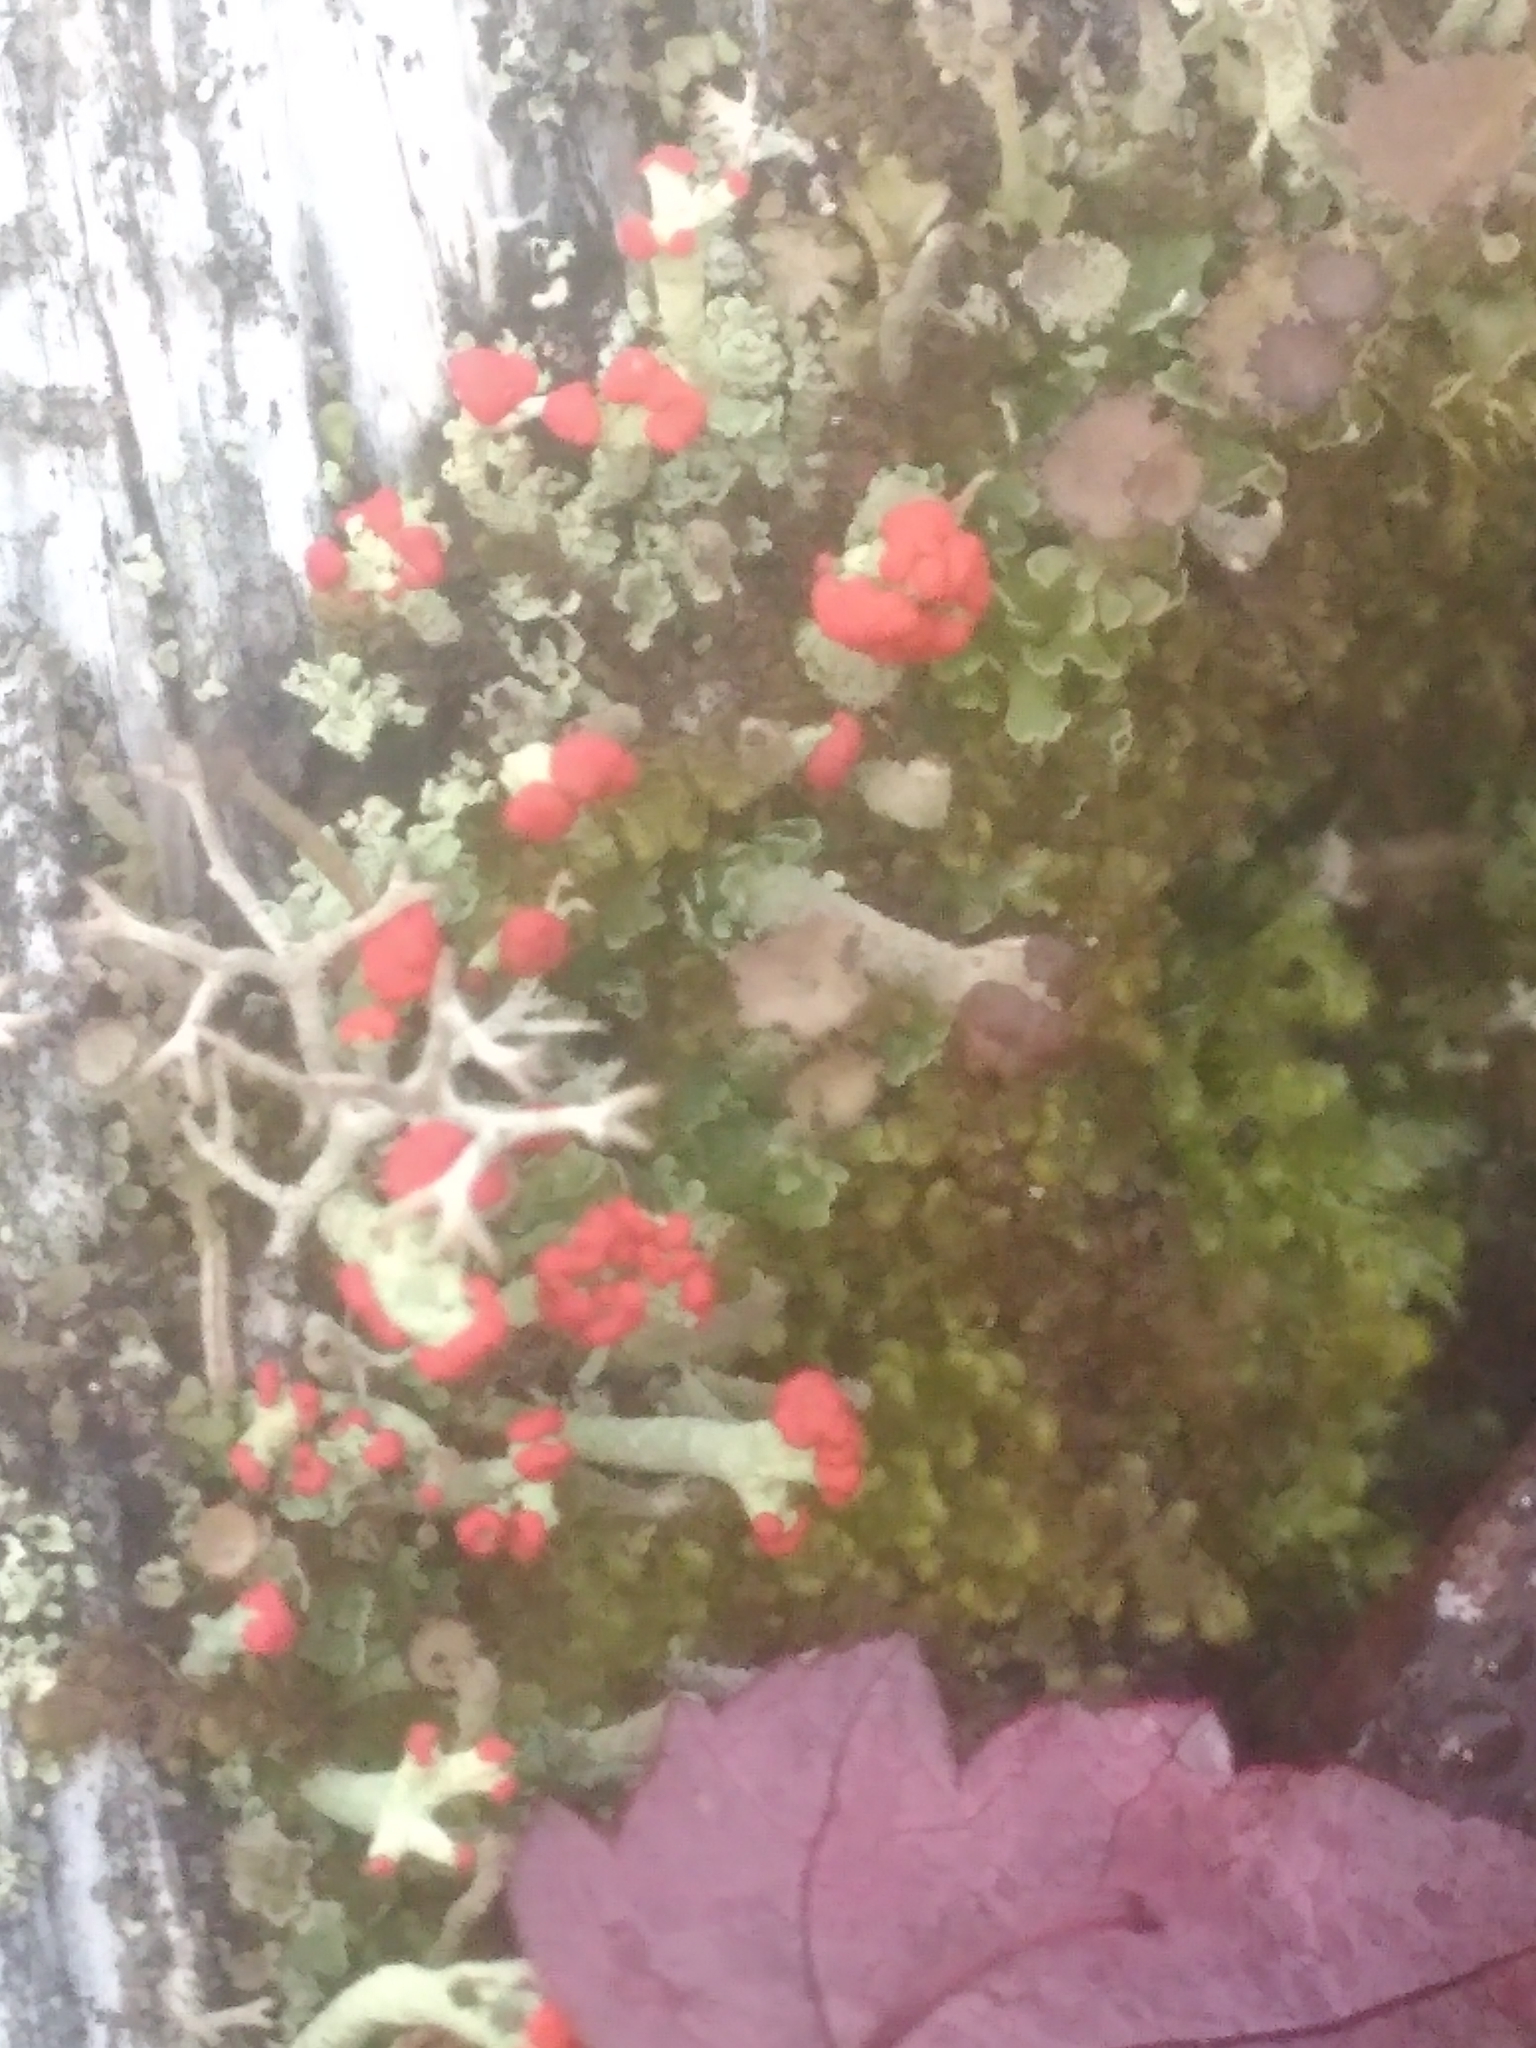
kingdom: Fungi
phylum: Ascomycota
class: Lecanoromycetes
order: Lecanorales
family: Cladoniaceae
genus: Cladonia
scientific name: Cladonia cristatella
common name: British soldier lichen
